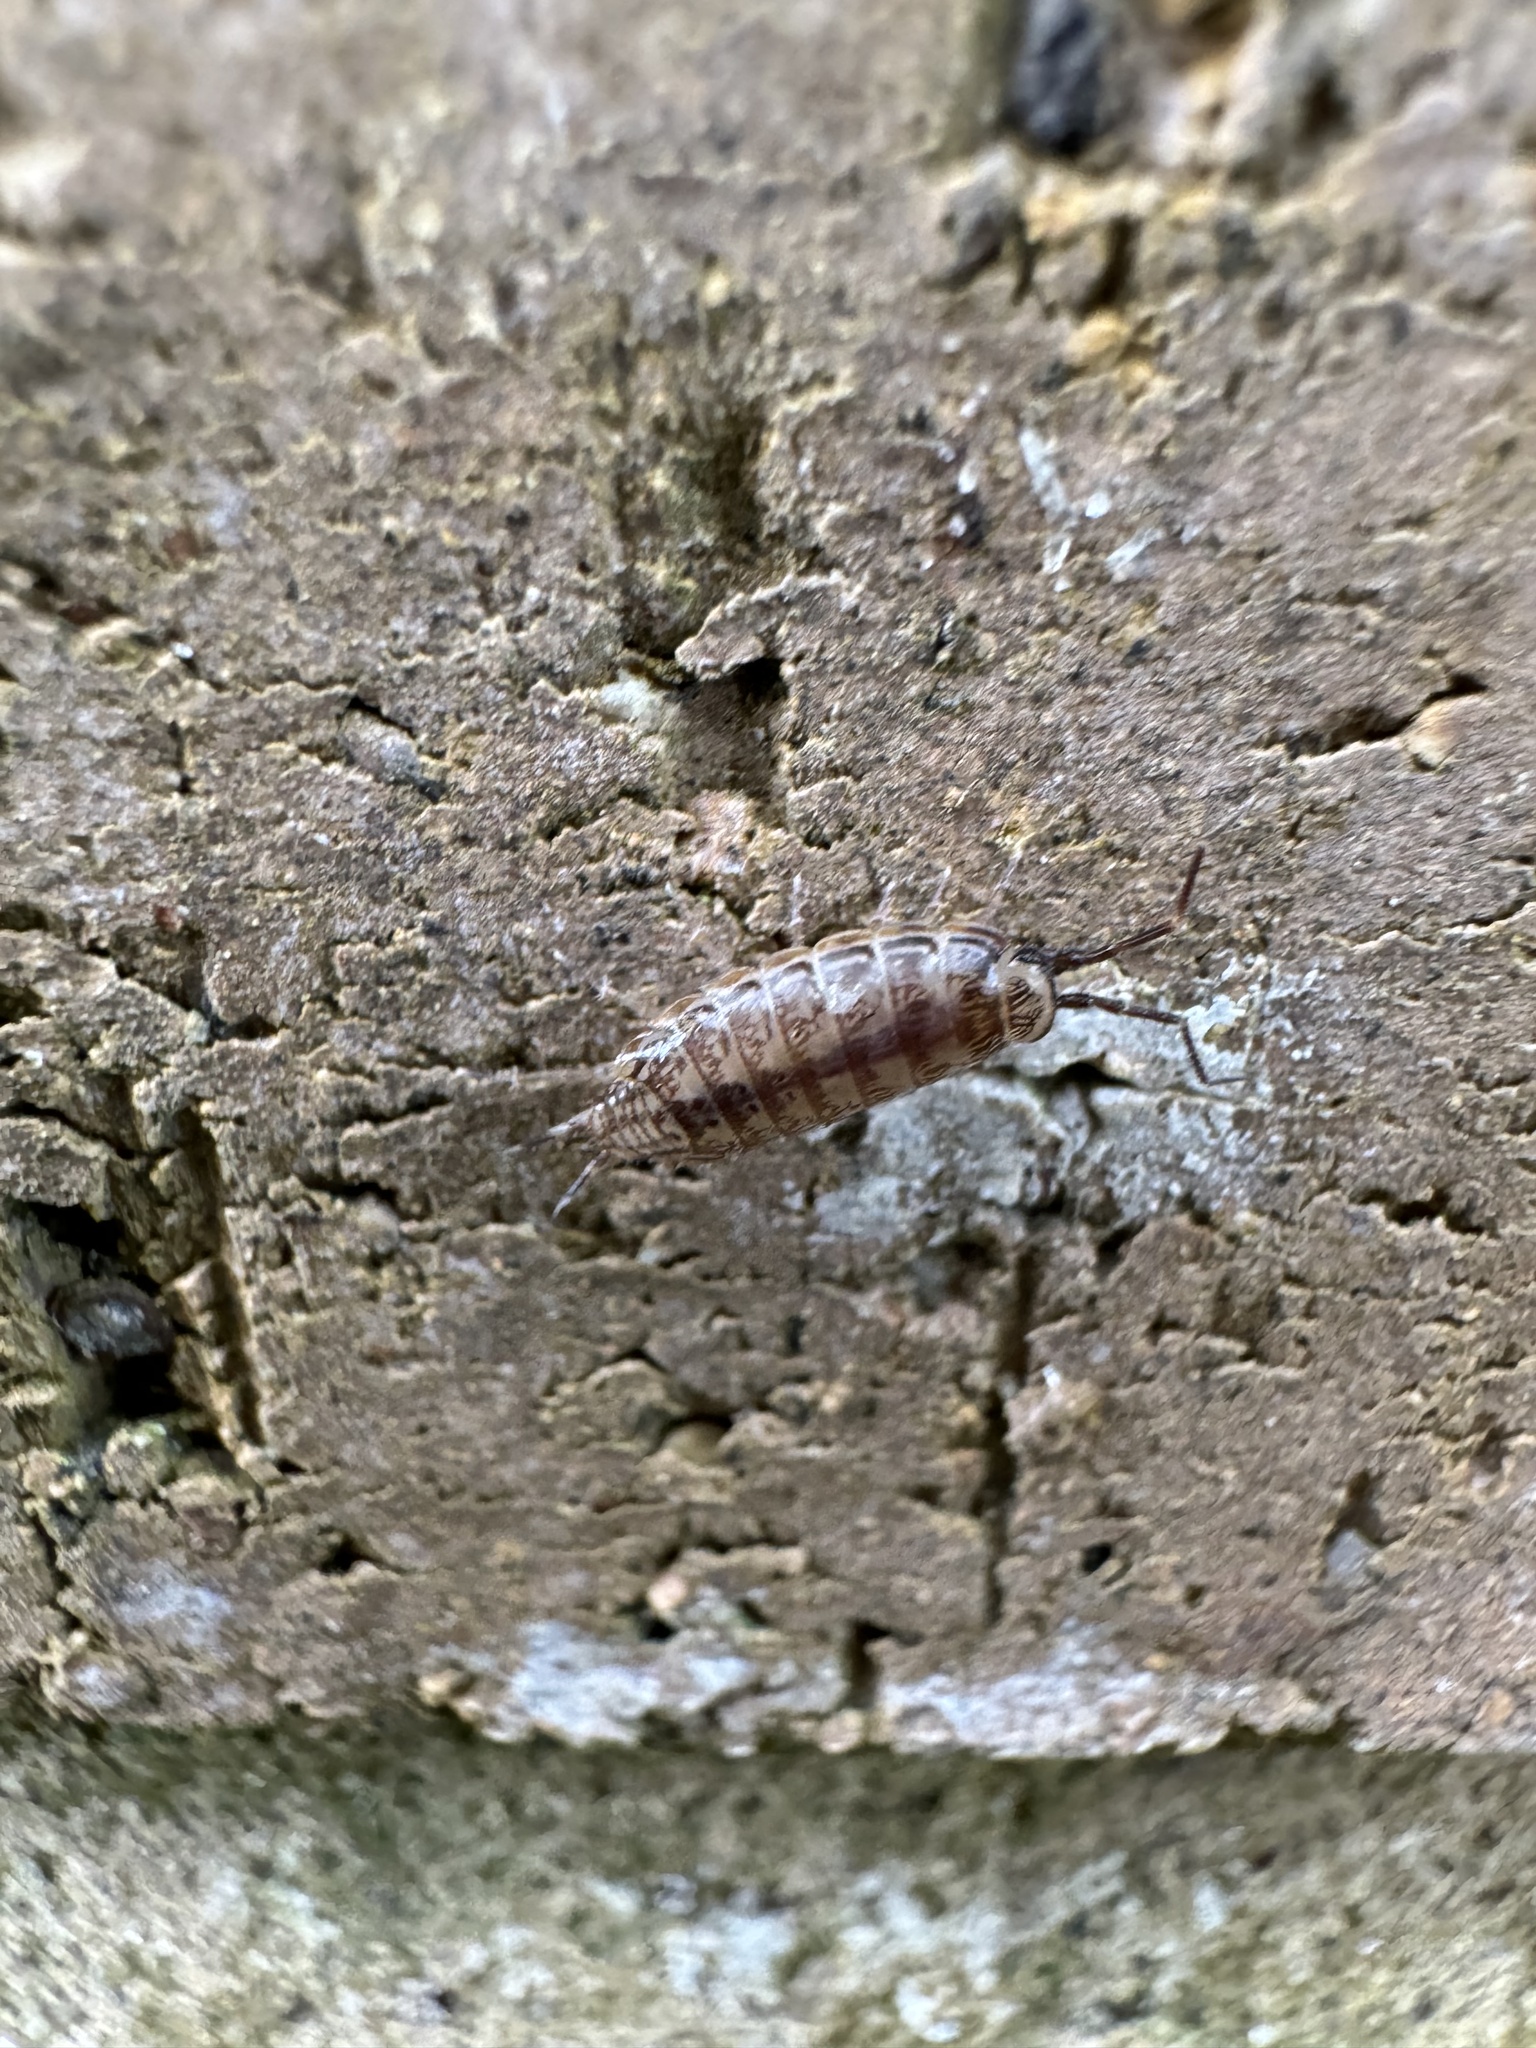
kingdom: Animalia
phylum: Arthropoda
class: Malacostraca
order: Isopoda
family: Philosciidae
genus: Atlantoscia
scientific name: Atlantoscia floridana
